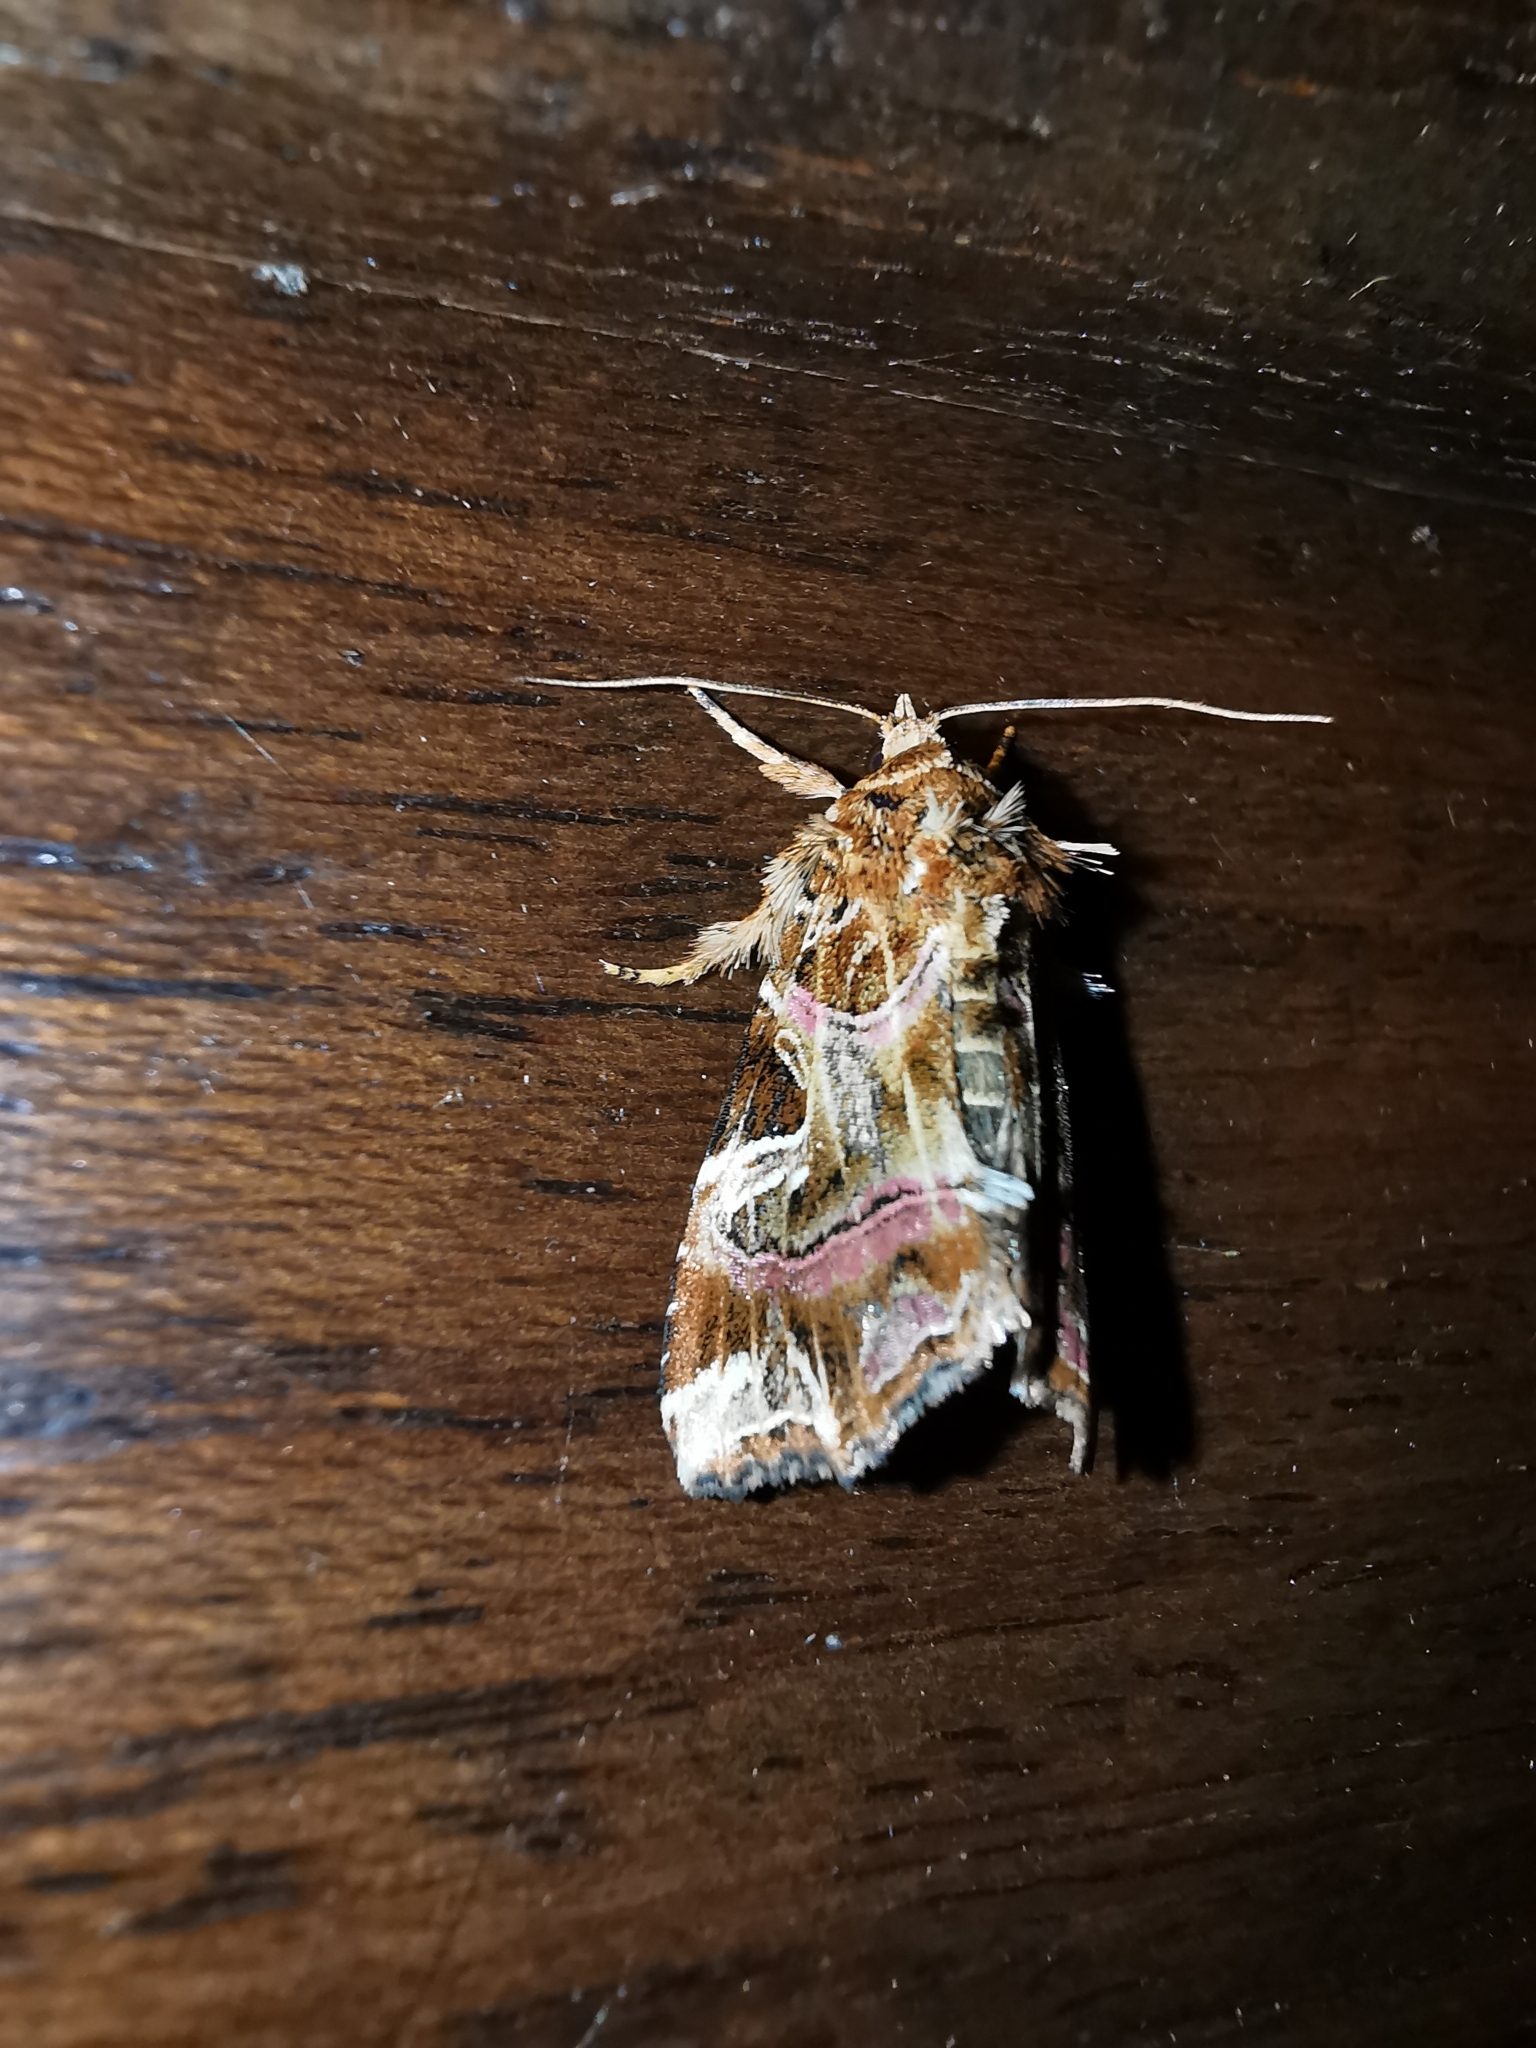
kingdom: Animalia
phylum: Arthropoda
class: Insecta
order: Lepidoptera
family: Noctuidae
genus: Callopistria
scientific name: Callopistria juventina
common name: Latin
